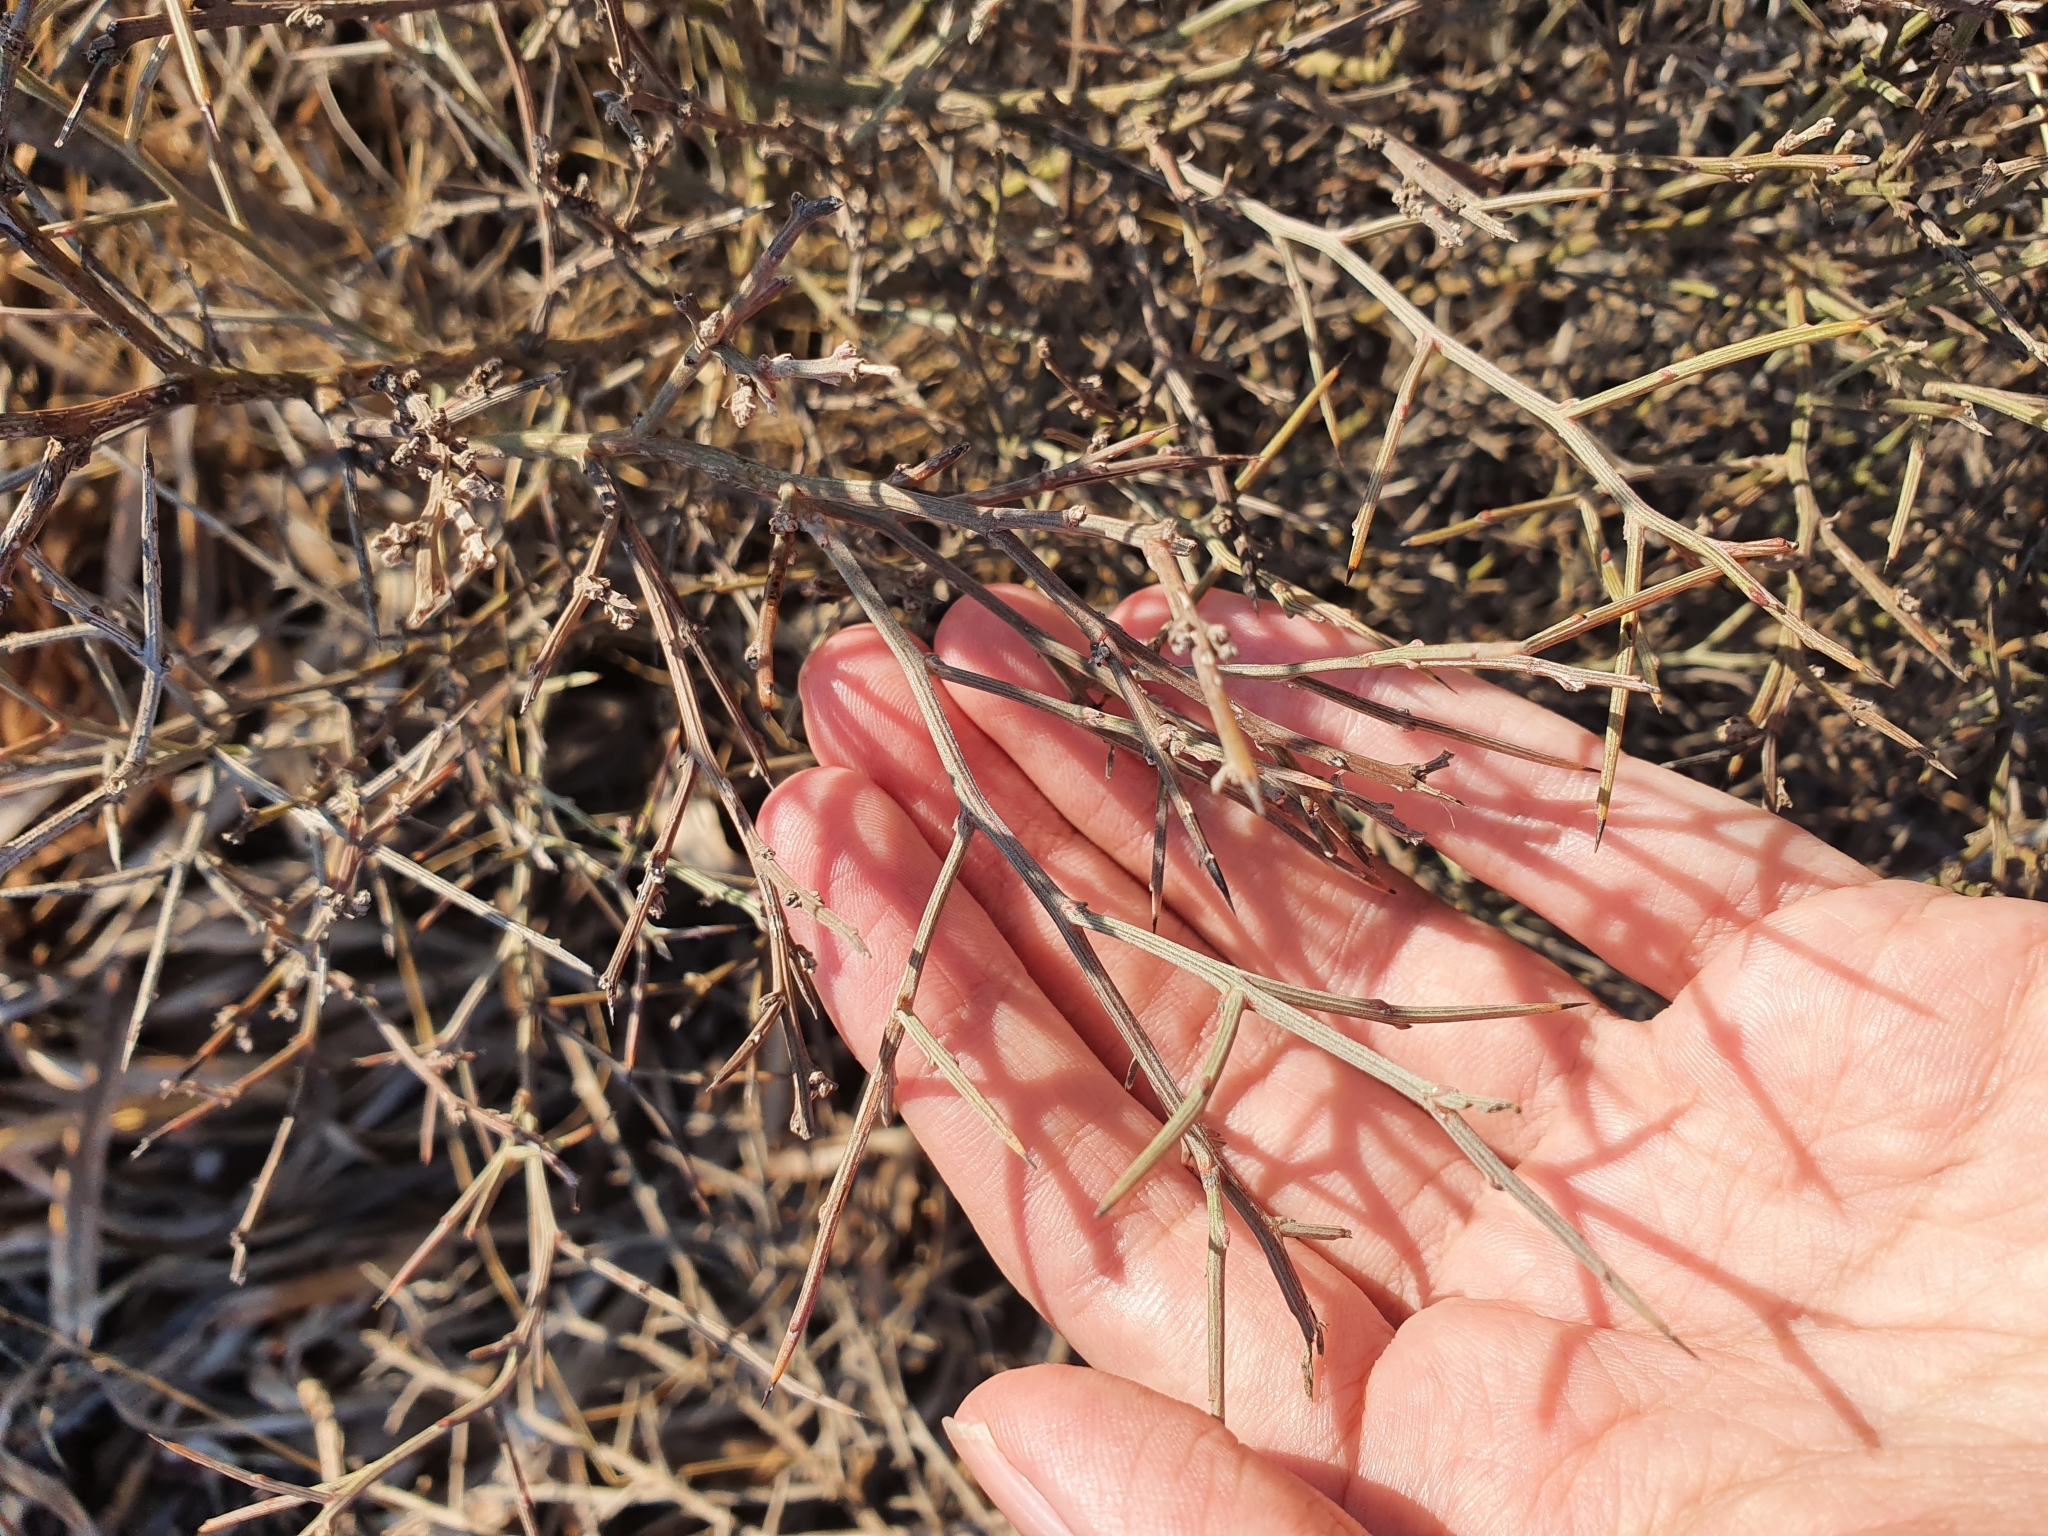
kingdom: Plantae
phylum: Tracheophyta
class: Magnoliopsida
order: Fabales
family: Fabaceae
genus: Calicotome
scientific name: Calicotome spinosa
